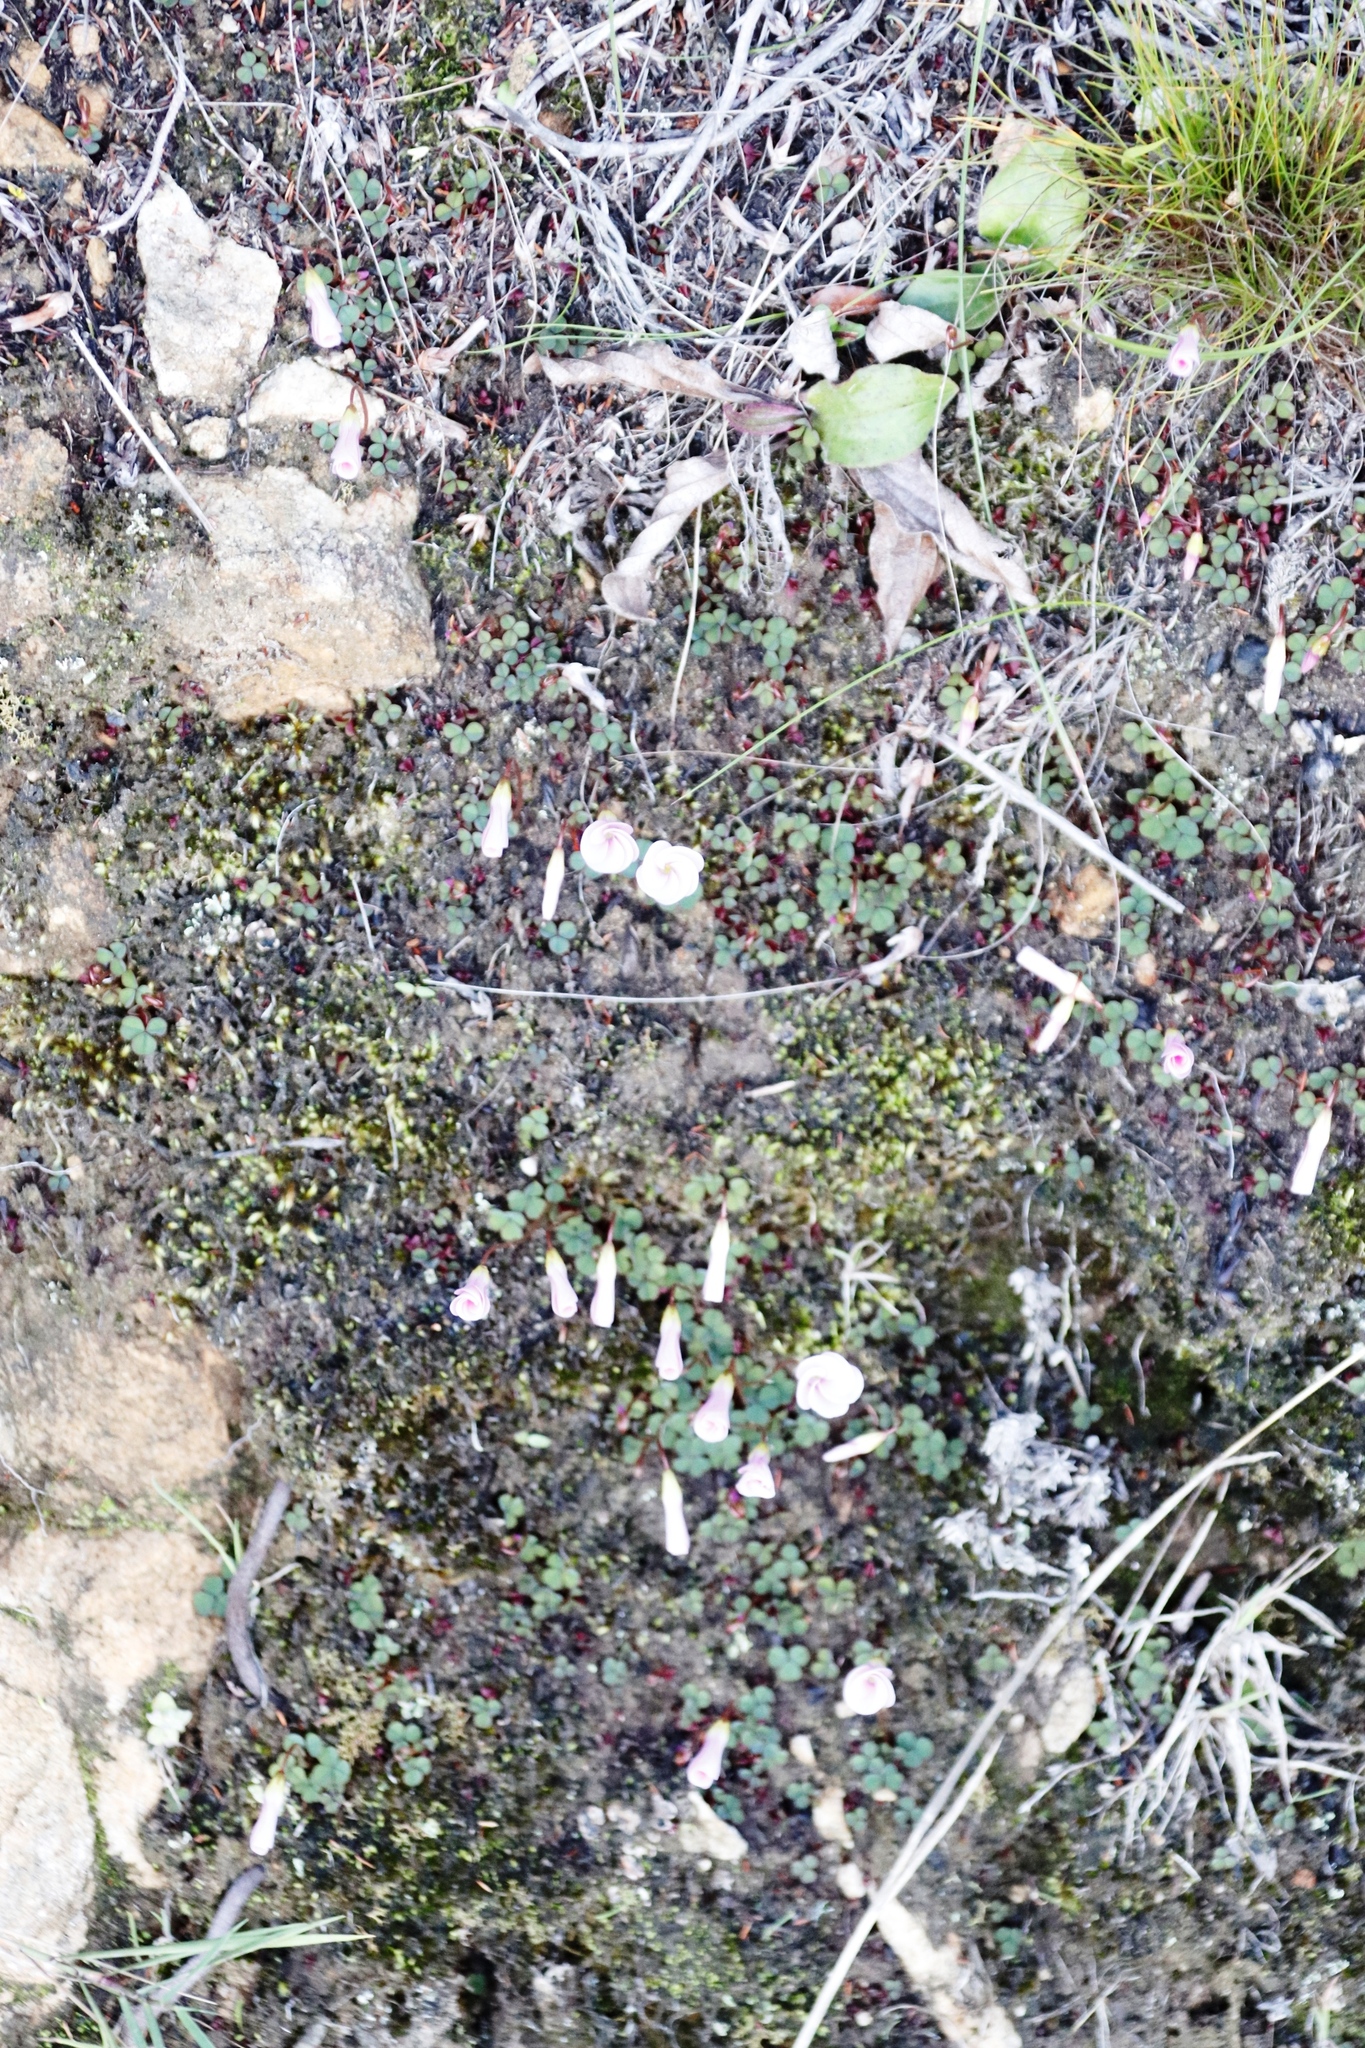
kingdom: Plantae
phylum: Tracheophyta
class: Magnoliopsida
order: Oxalidales
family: Oxalidaceae
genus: Oxalis
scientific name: Oxalis commutata
